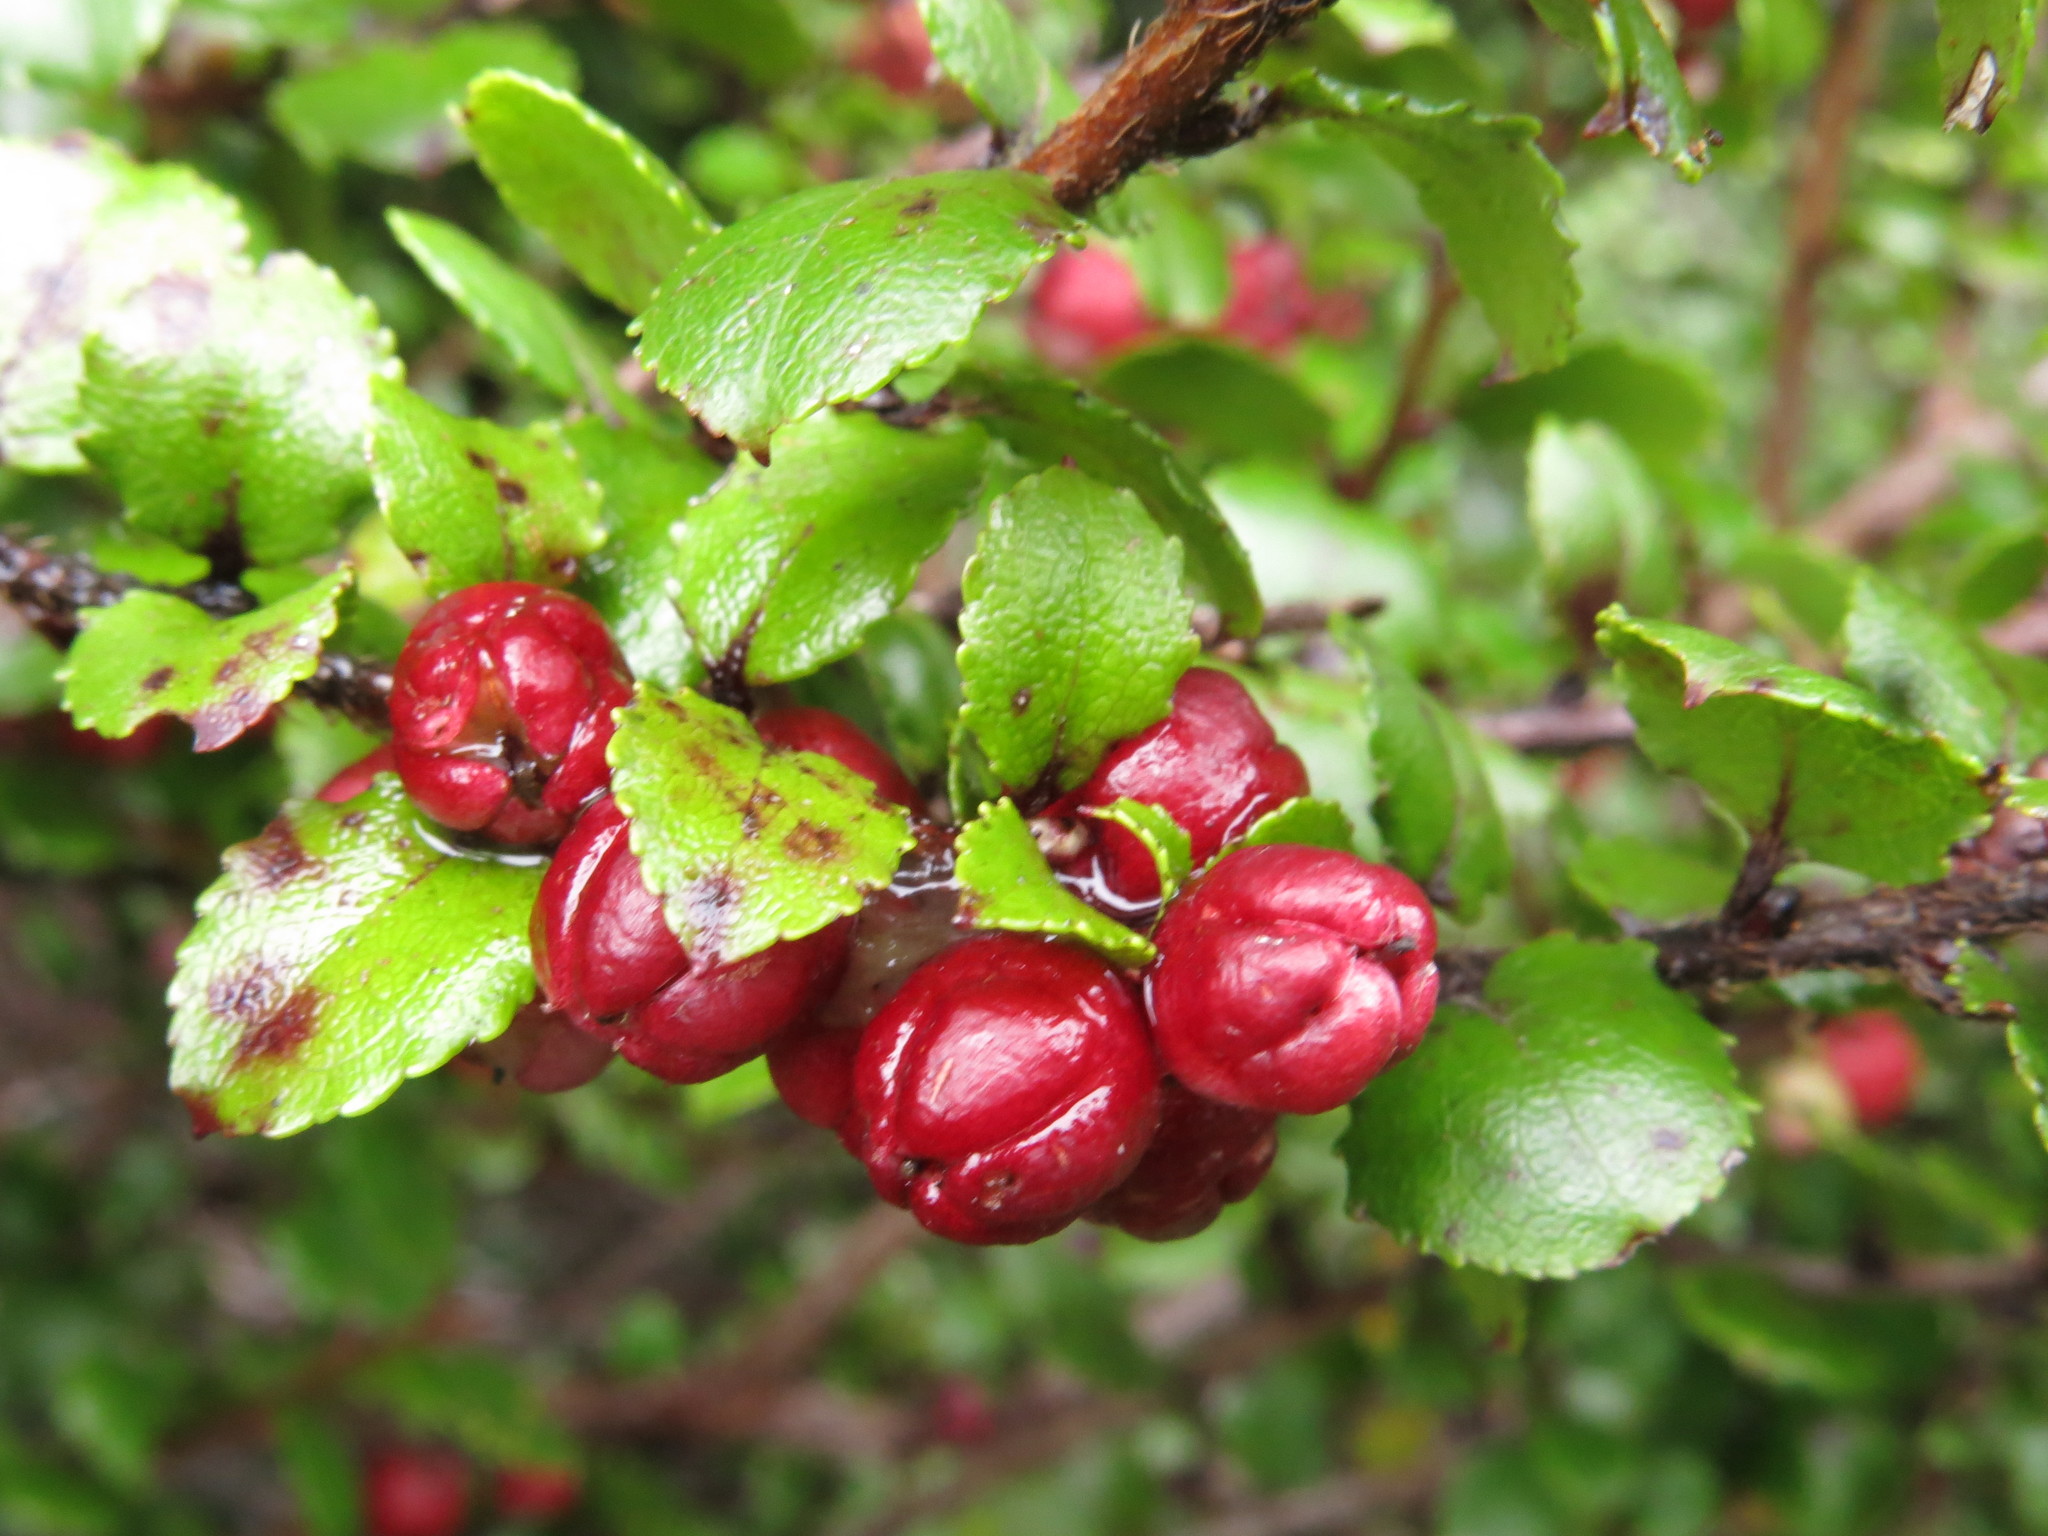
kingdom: Plantae
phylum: Tracheophyta
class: Magnoliopsida
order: Ericales
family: Ericaceae
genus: Gaultheria
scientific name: Gaultheria antipoda
